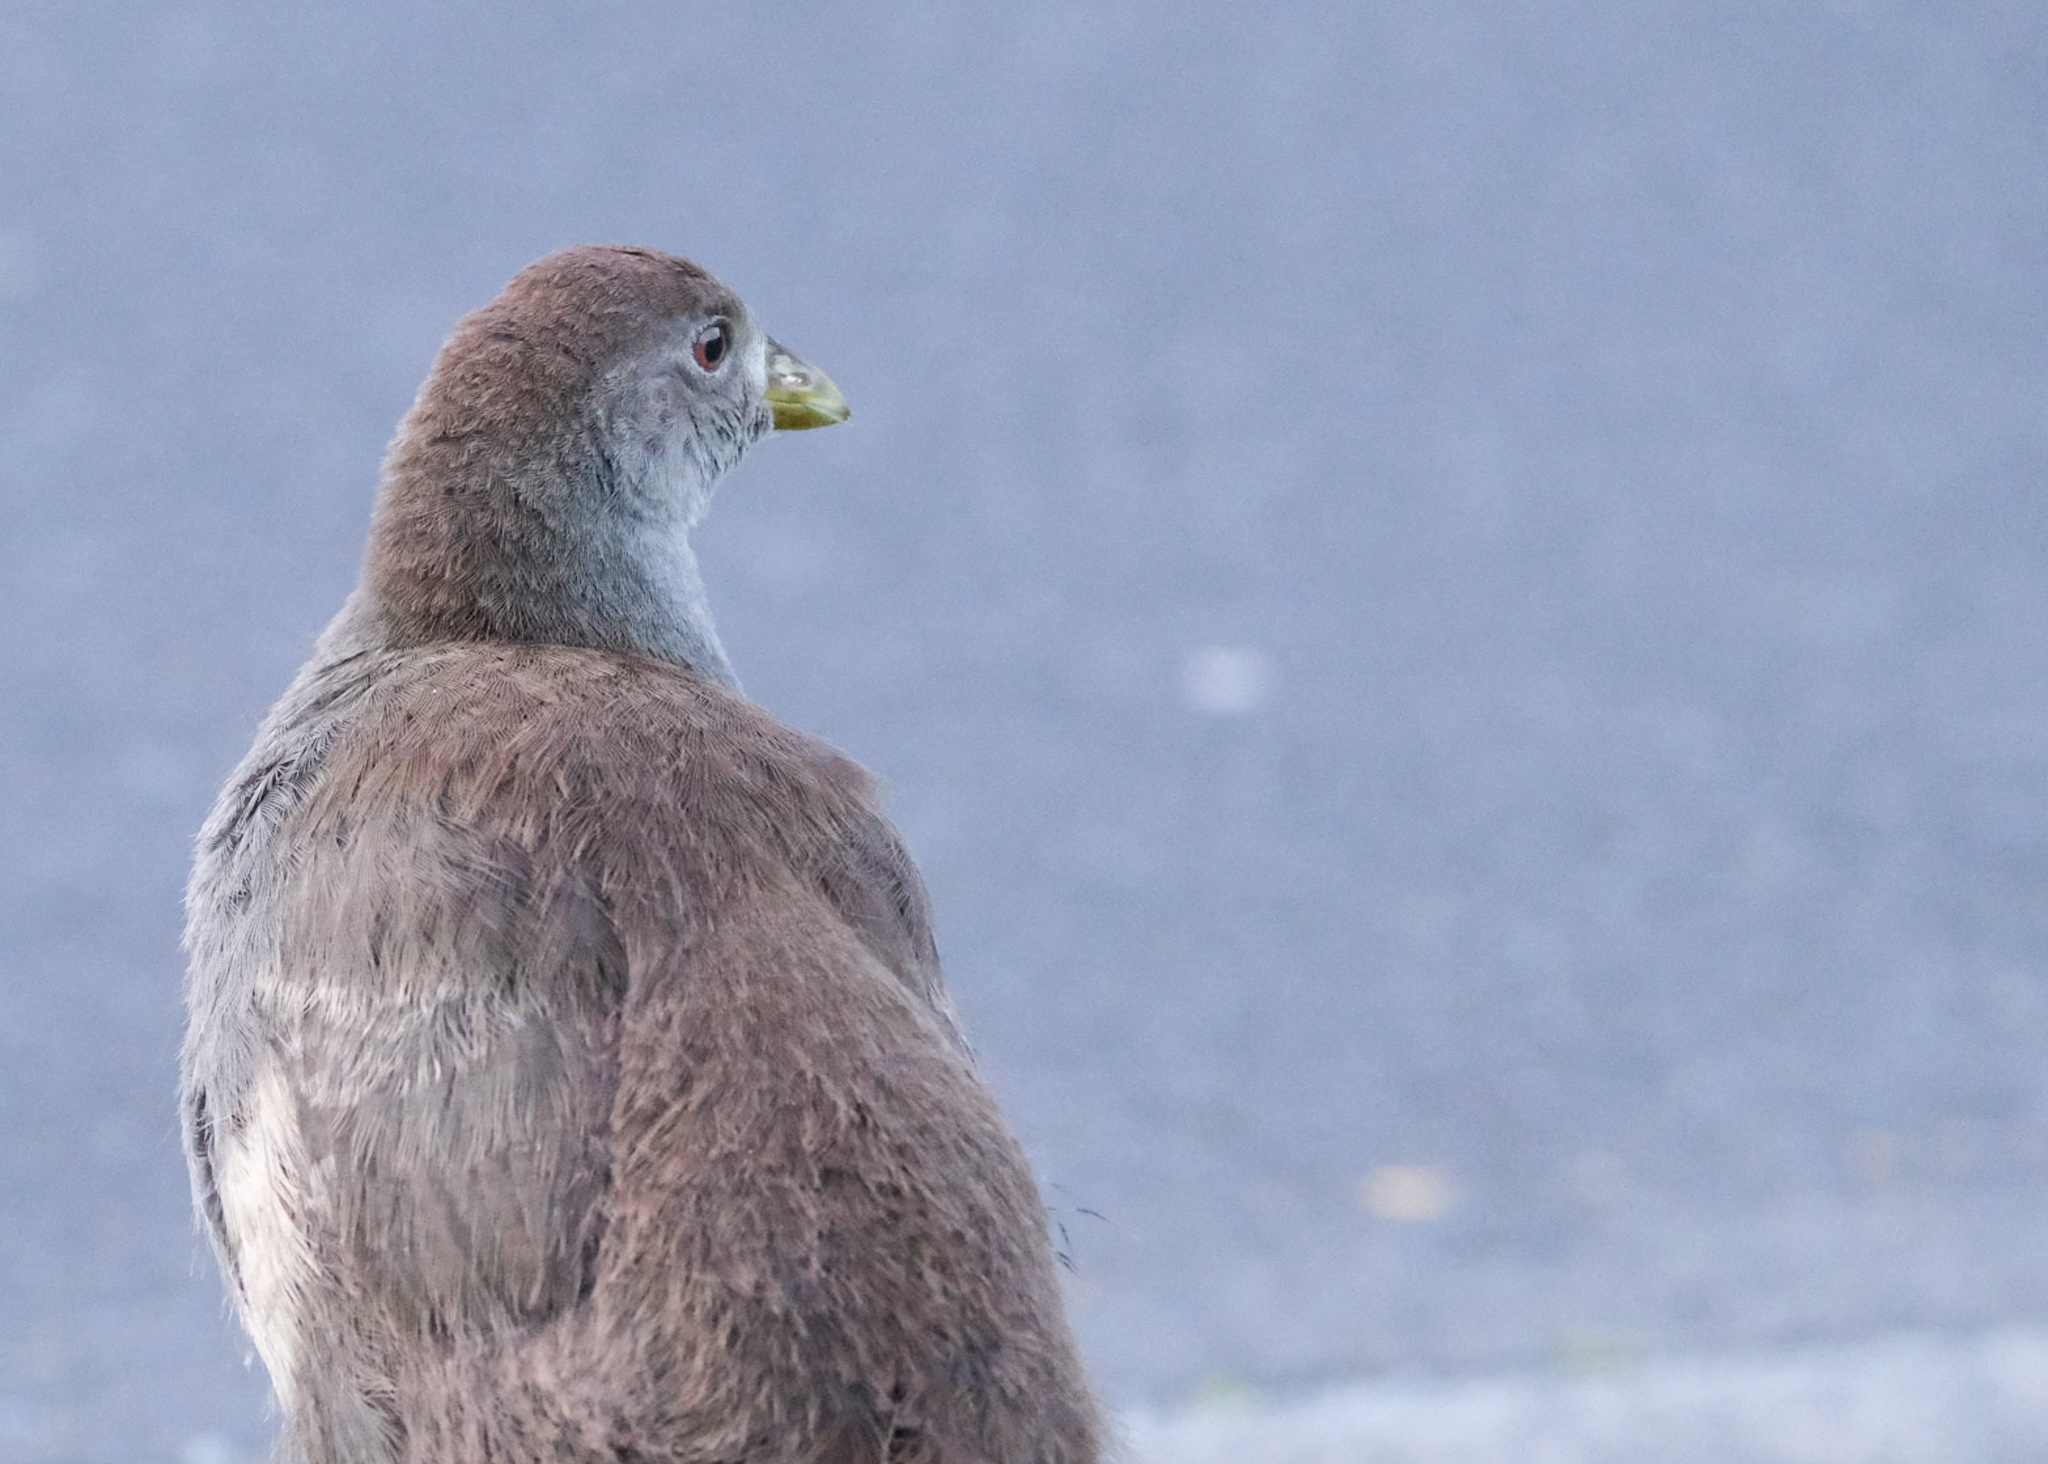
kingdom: Animalia
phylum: Chordata
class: Aves
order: Gruiformes
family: Rallidae
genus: Gallinula
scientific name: Gallinula mortierii
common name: Tasmanian nativehen
